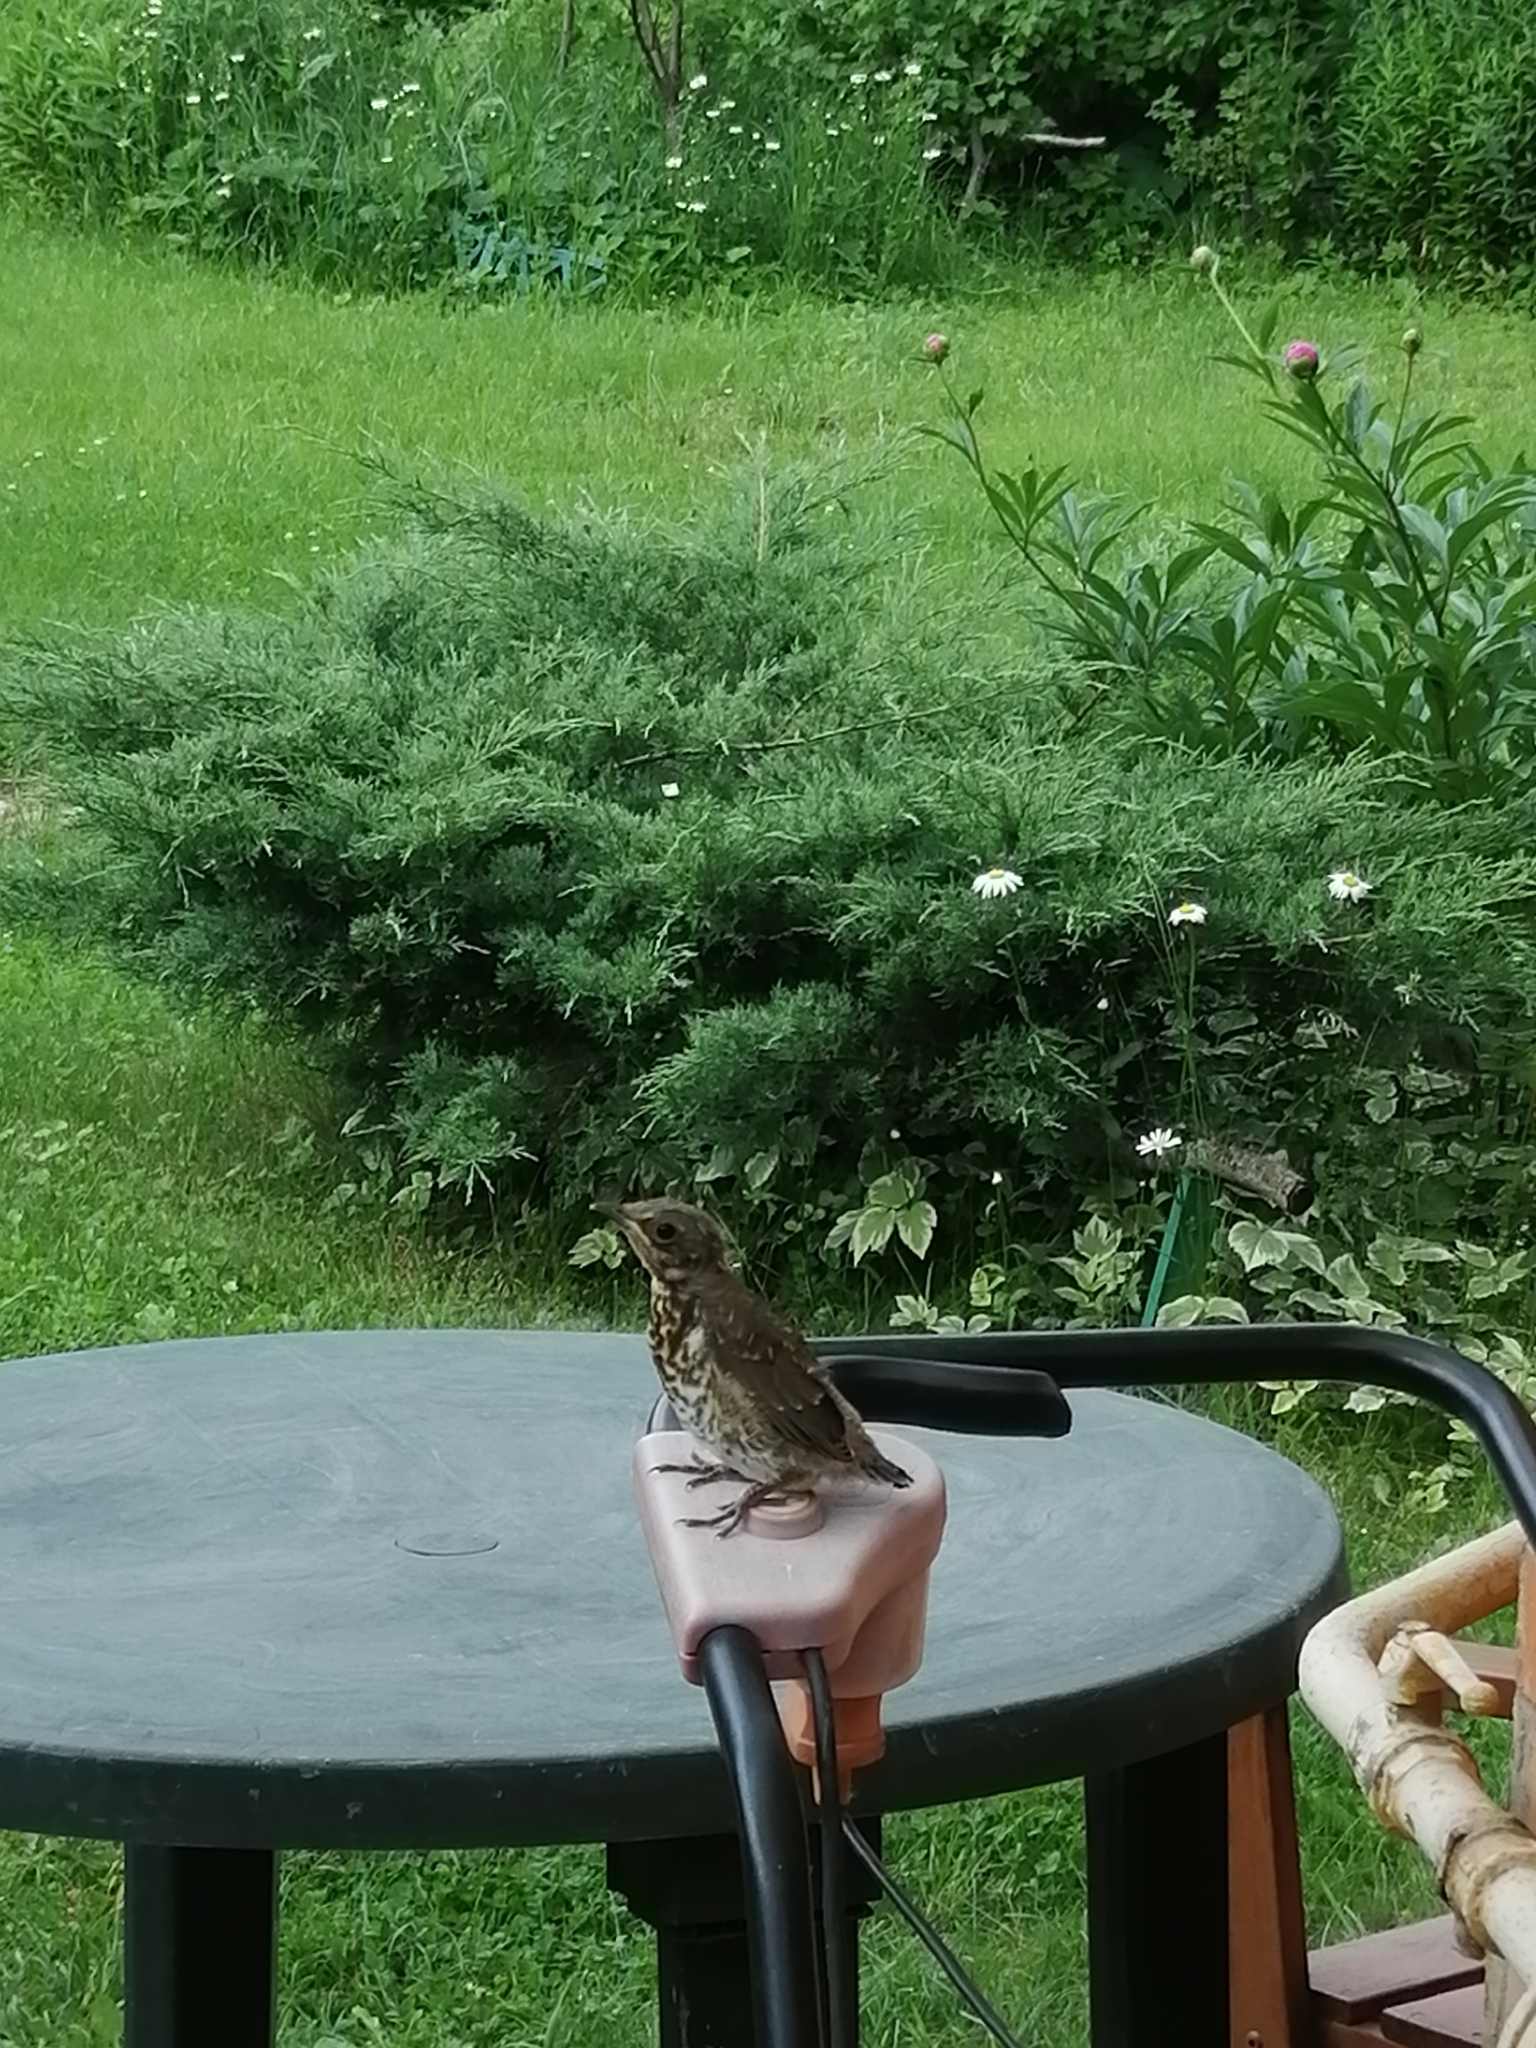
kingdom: Animalia
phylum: Chordata
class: Aves
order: Passeriformes
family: Turdidae
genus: Turdus
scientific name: Turdus pilaris
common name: Fieldfare
